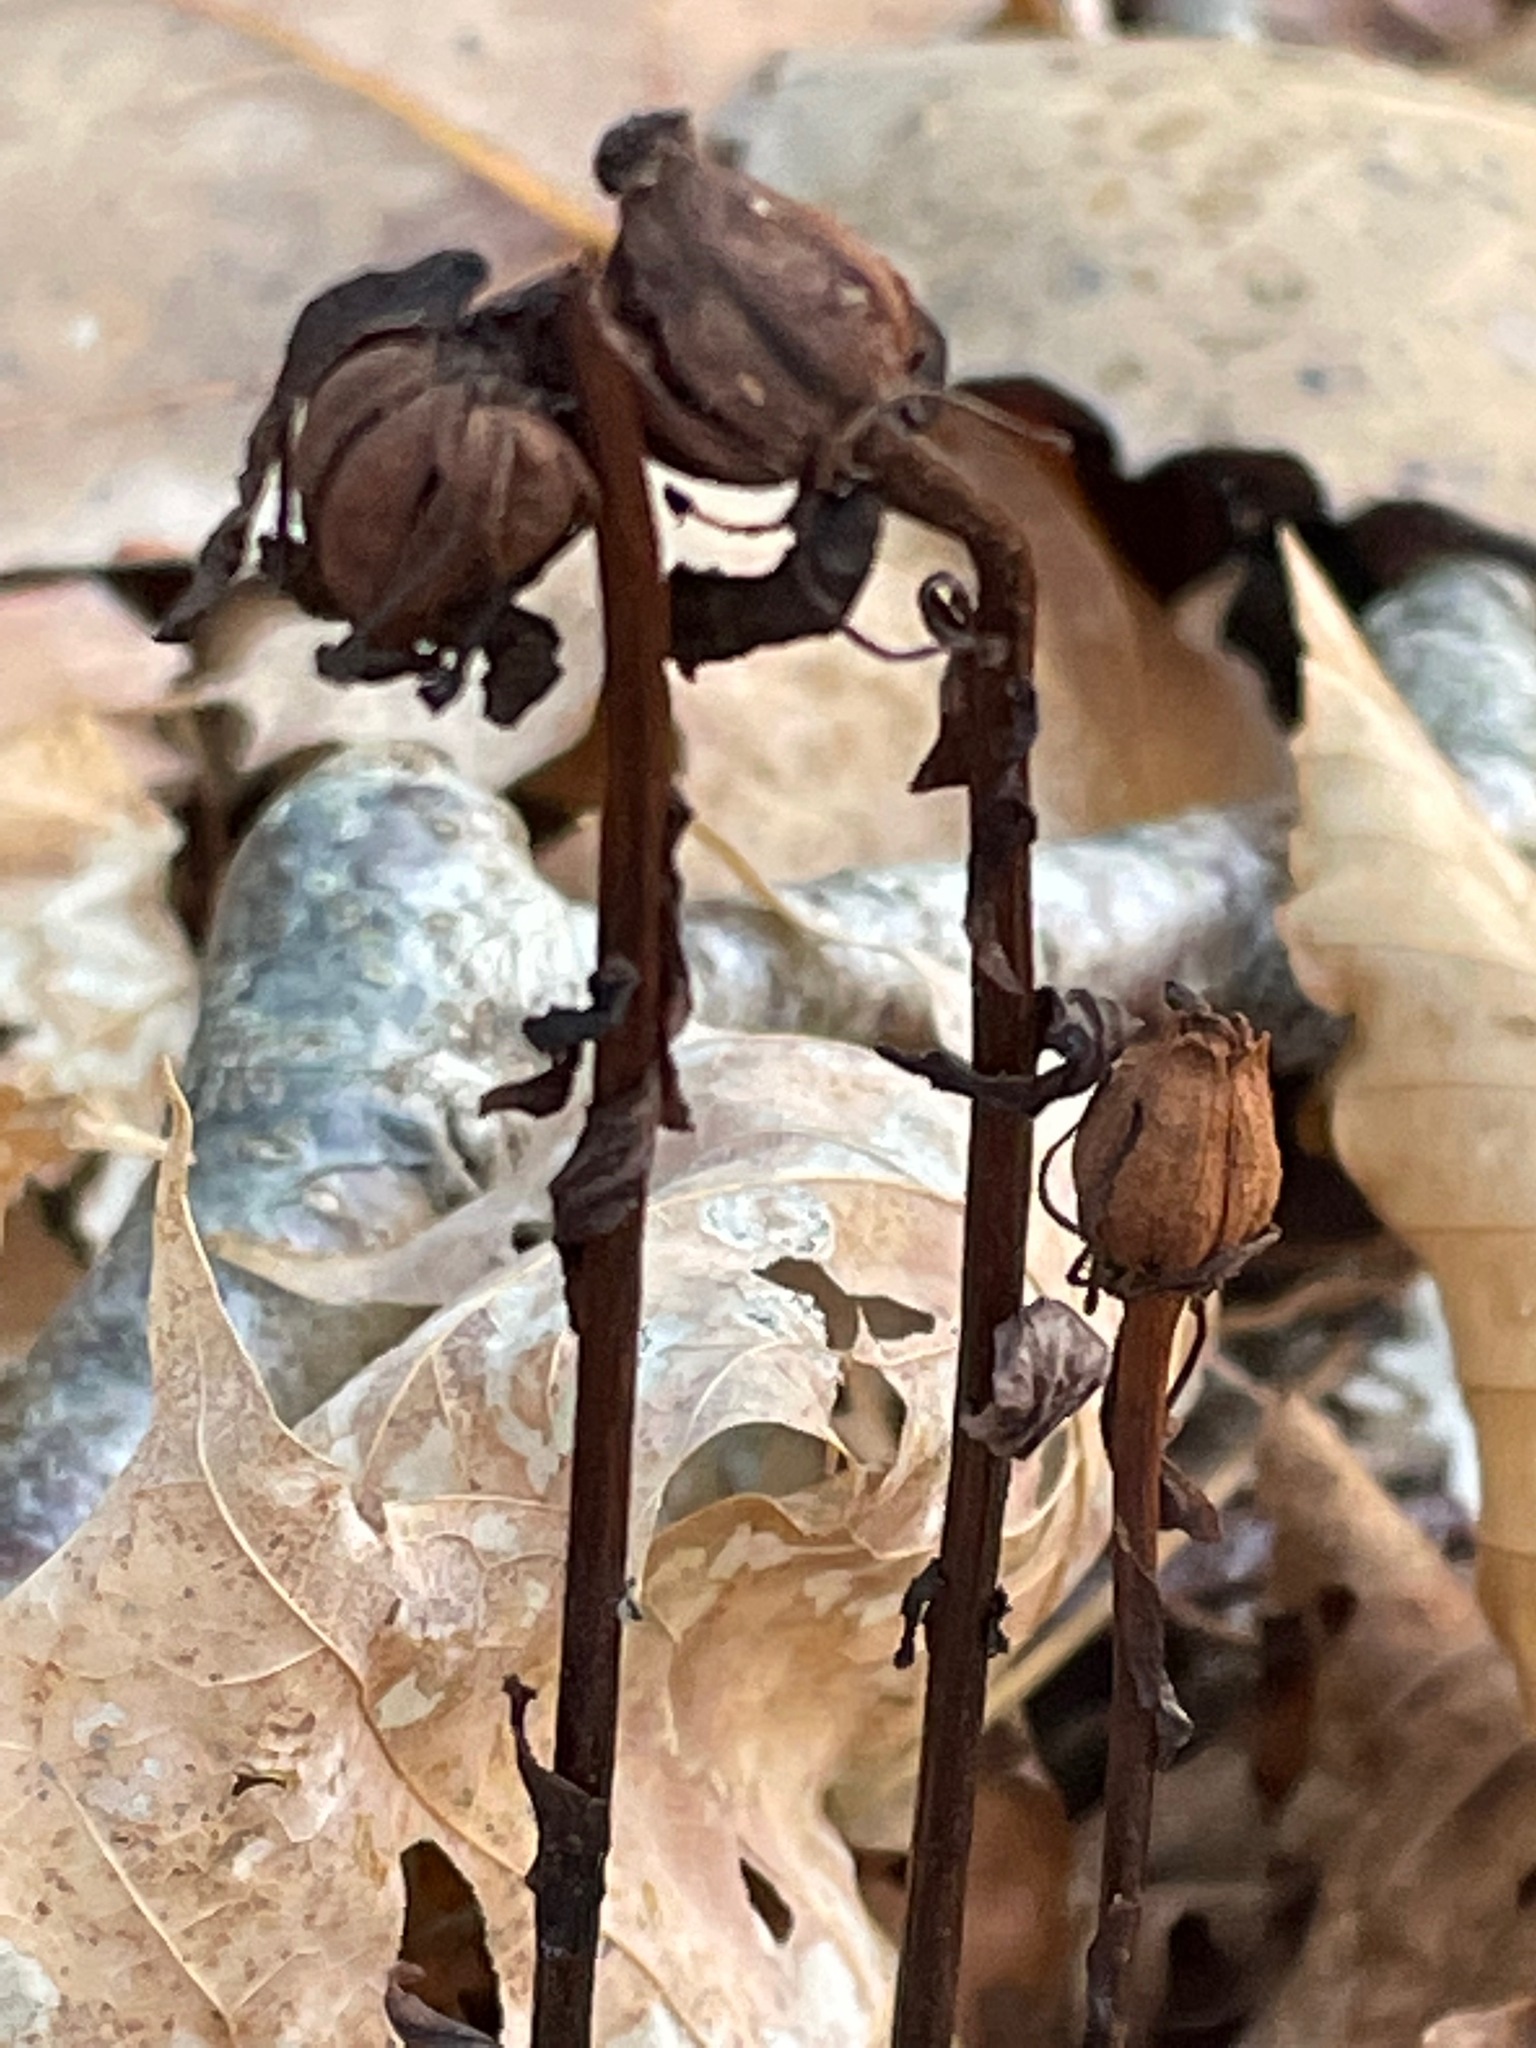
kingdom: Plantae
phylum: Tracheophyta
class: Magnoliopsida
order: Ericales
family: Ericaceae
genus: Monotropa
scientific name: Monotropa uniflora
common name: Convulsion root
